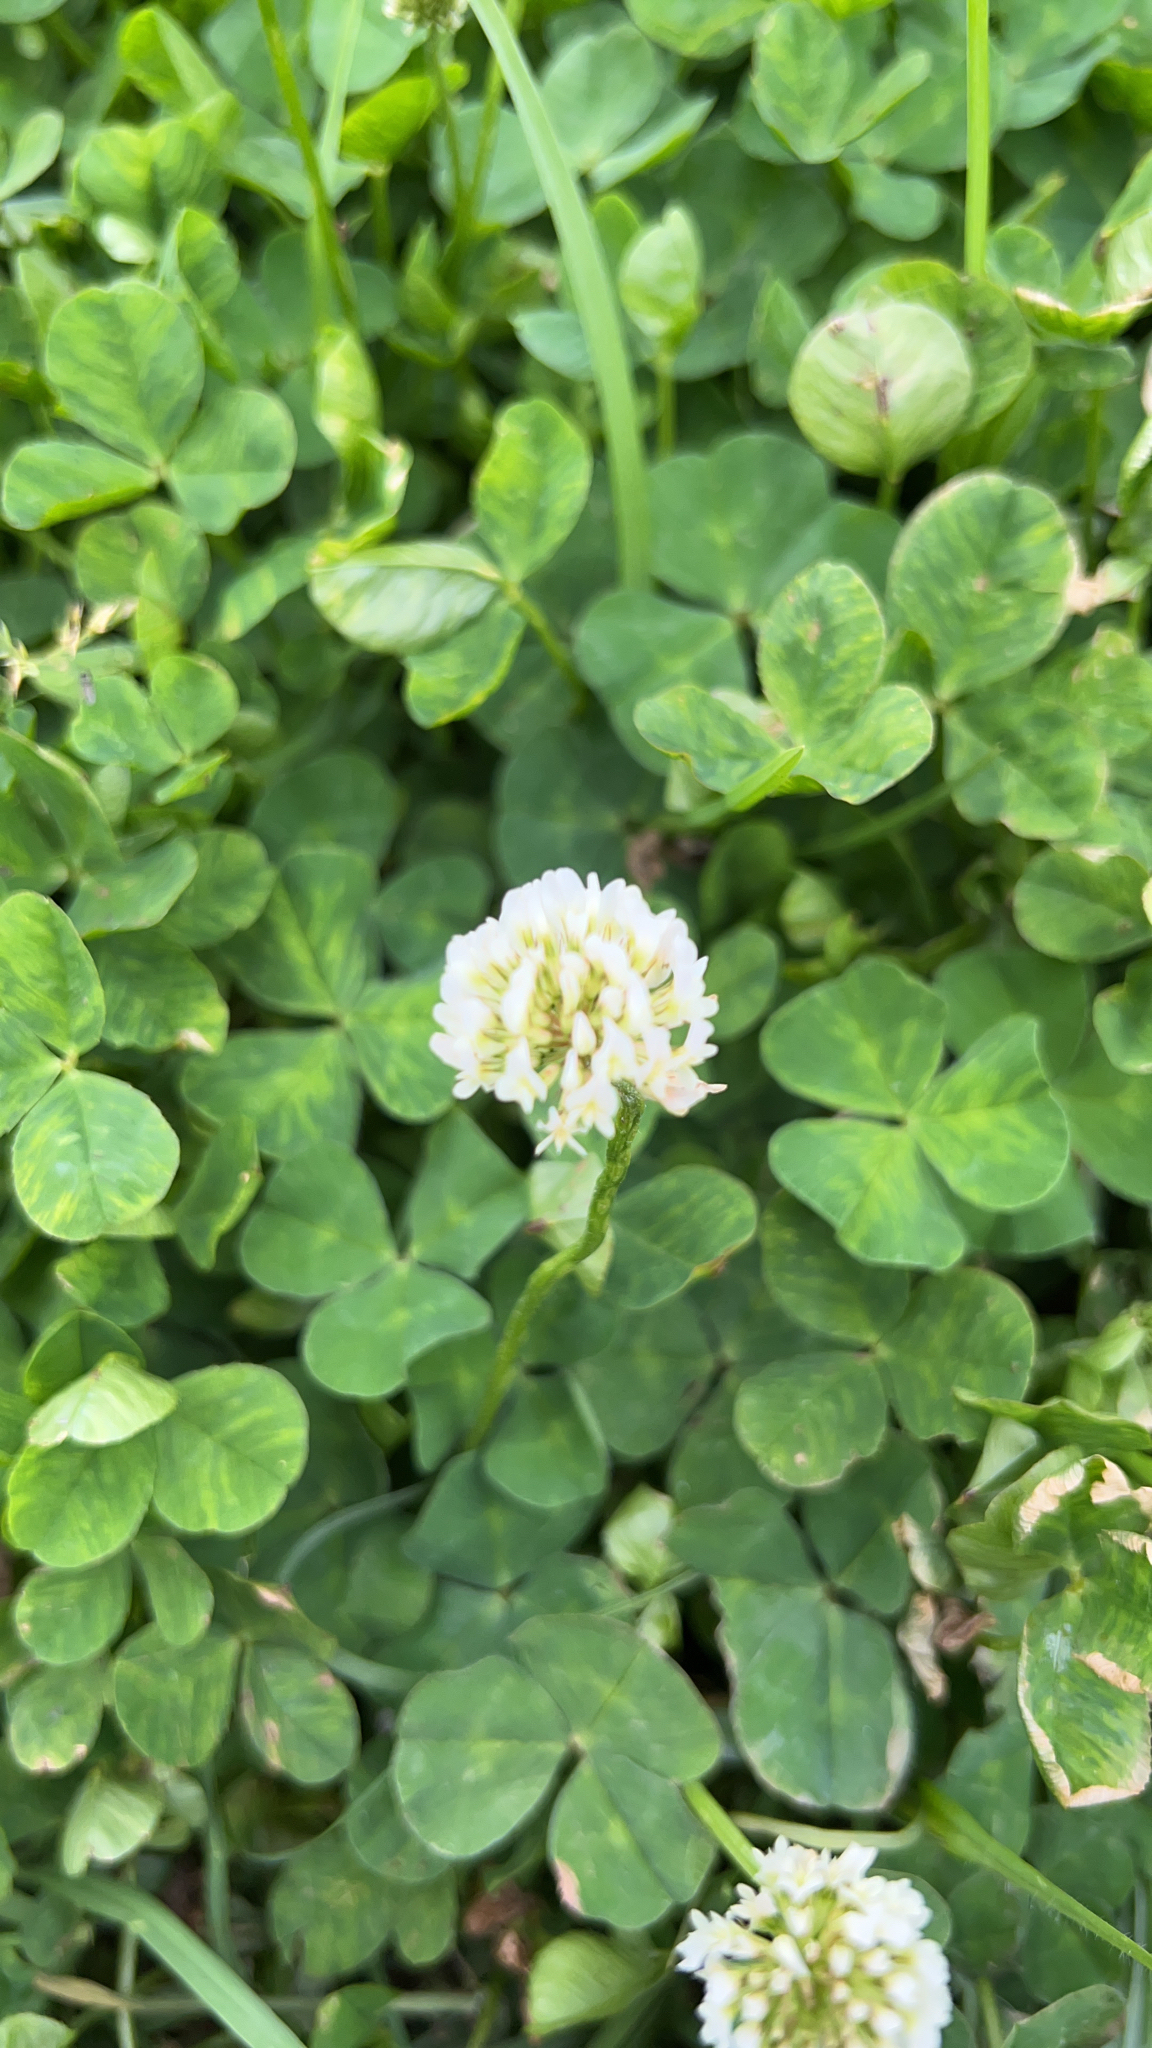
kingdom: Plantae
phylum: Tracheophyta
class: Magnoliopsida
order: Fabales
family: Fabaceae
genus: Trifolium
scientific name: Trifolium repens
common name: White clover
